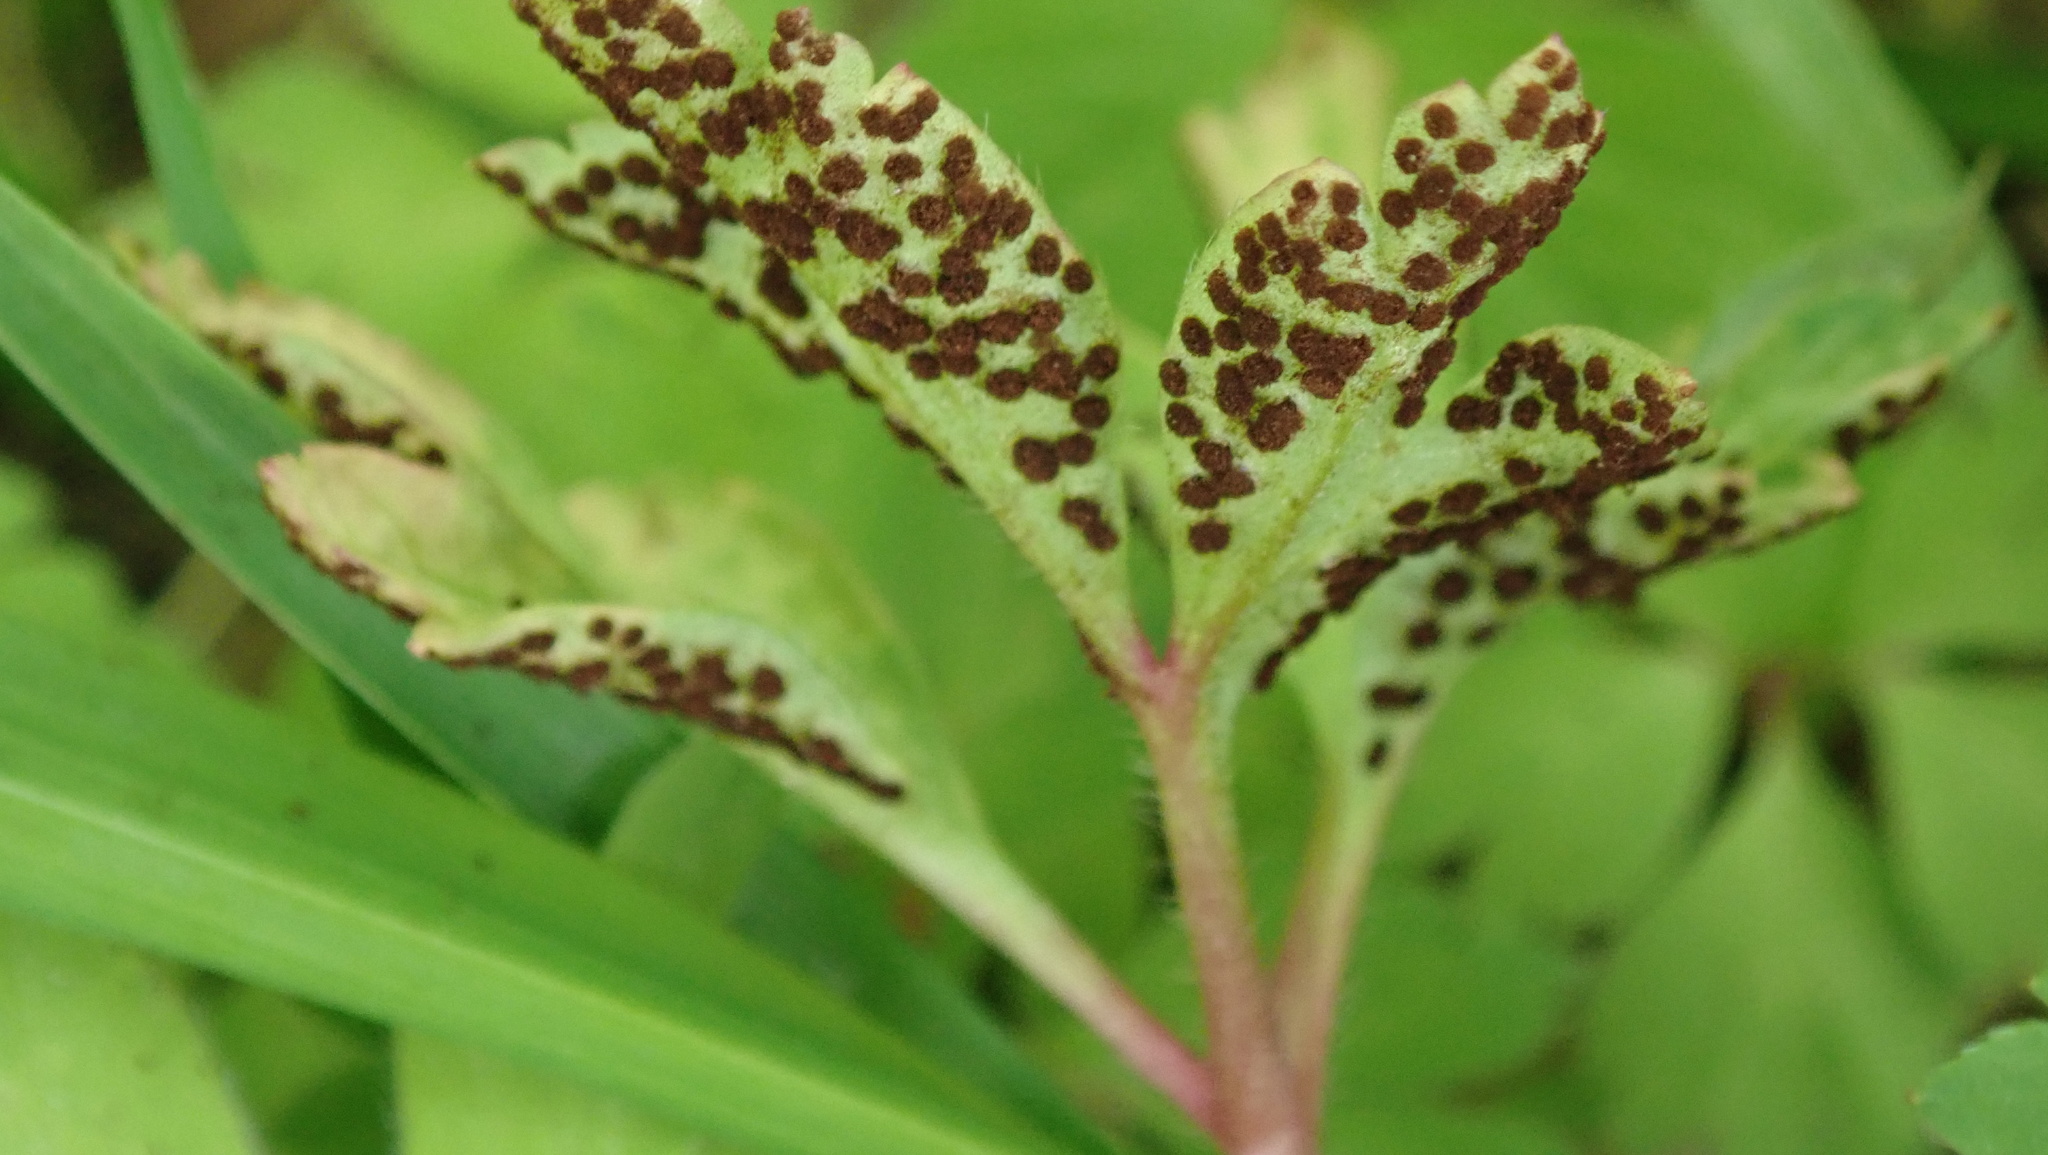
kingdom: Fungi
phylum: Basidiomycota
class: Pucciniomycetes
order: Pucciniales
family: Tranzscheliaceae
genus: Tranzschelia
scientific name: Tranzschelia anemones
